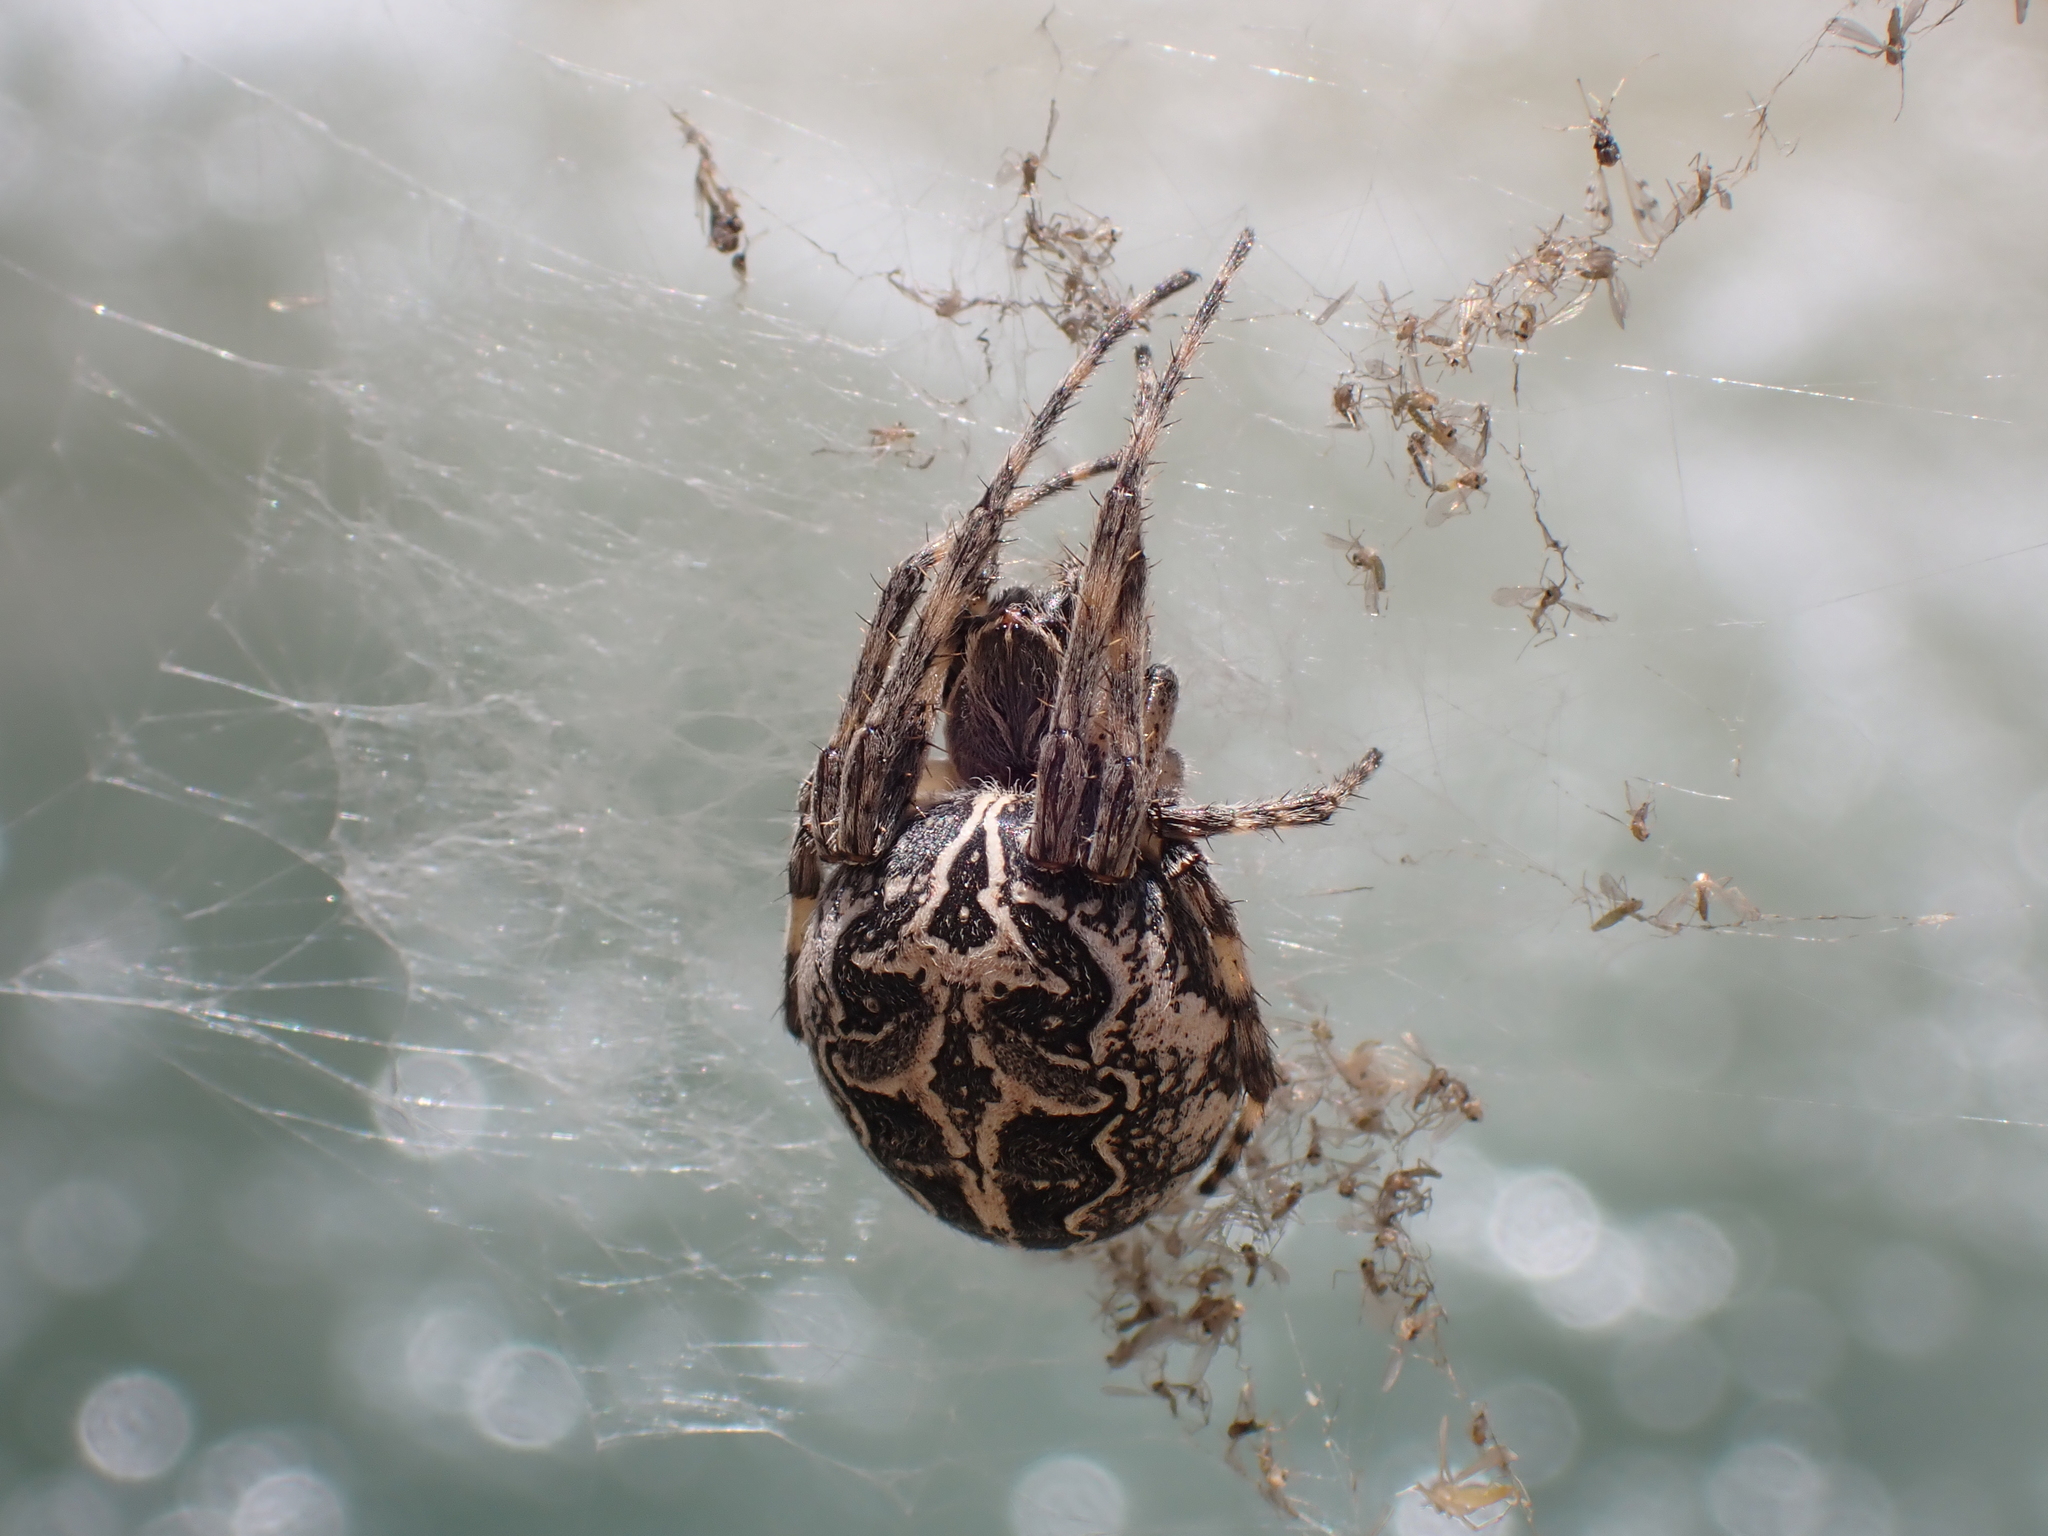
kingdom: Animalia
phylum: Arthropoda
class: Arachnida
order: Araneae
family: Araneidae
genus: Larinioides
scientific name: Larinioides sclopetarius
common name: Bridge orbweaver
